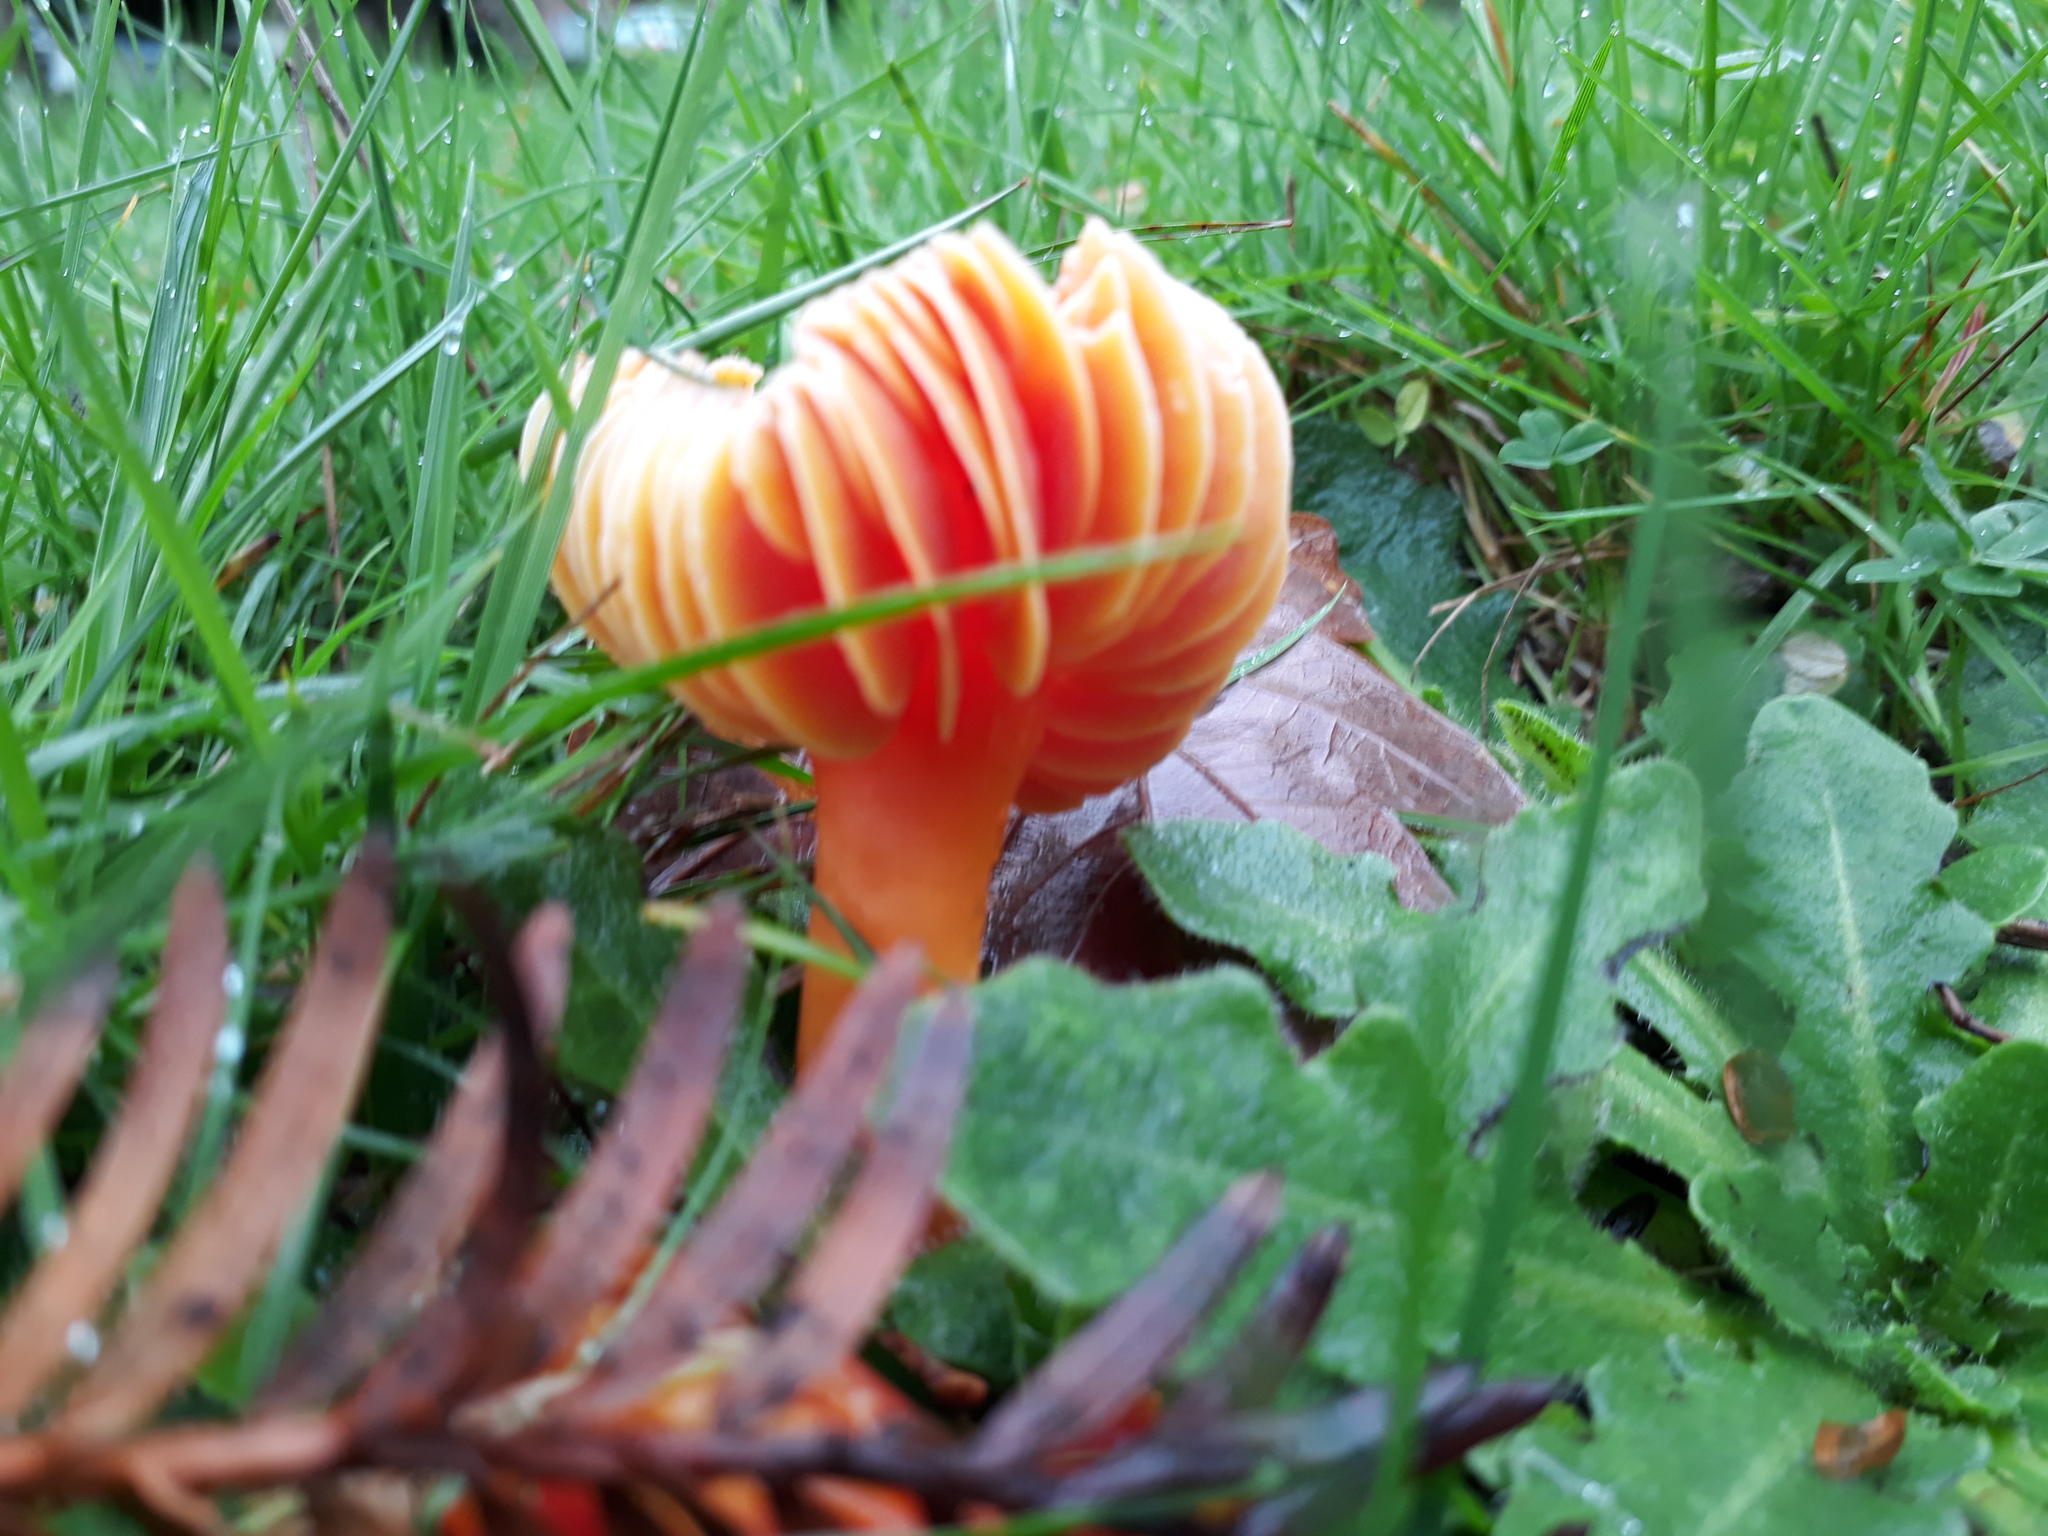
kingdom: Fungi
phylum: Basidiomycota
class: Agaricomycetes
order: Agaricales
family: Hygrophoraceae
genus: Hygrocybe
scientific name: Hygrocybe coccinea
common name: Scarlet hood
